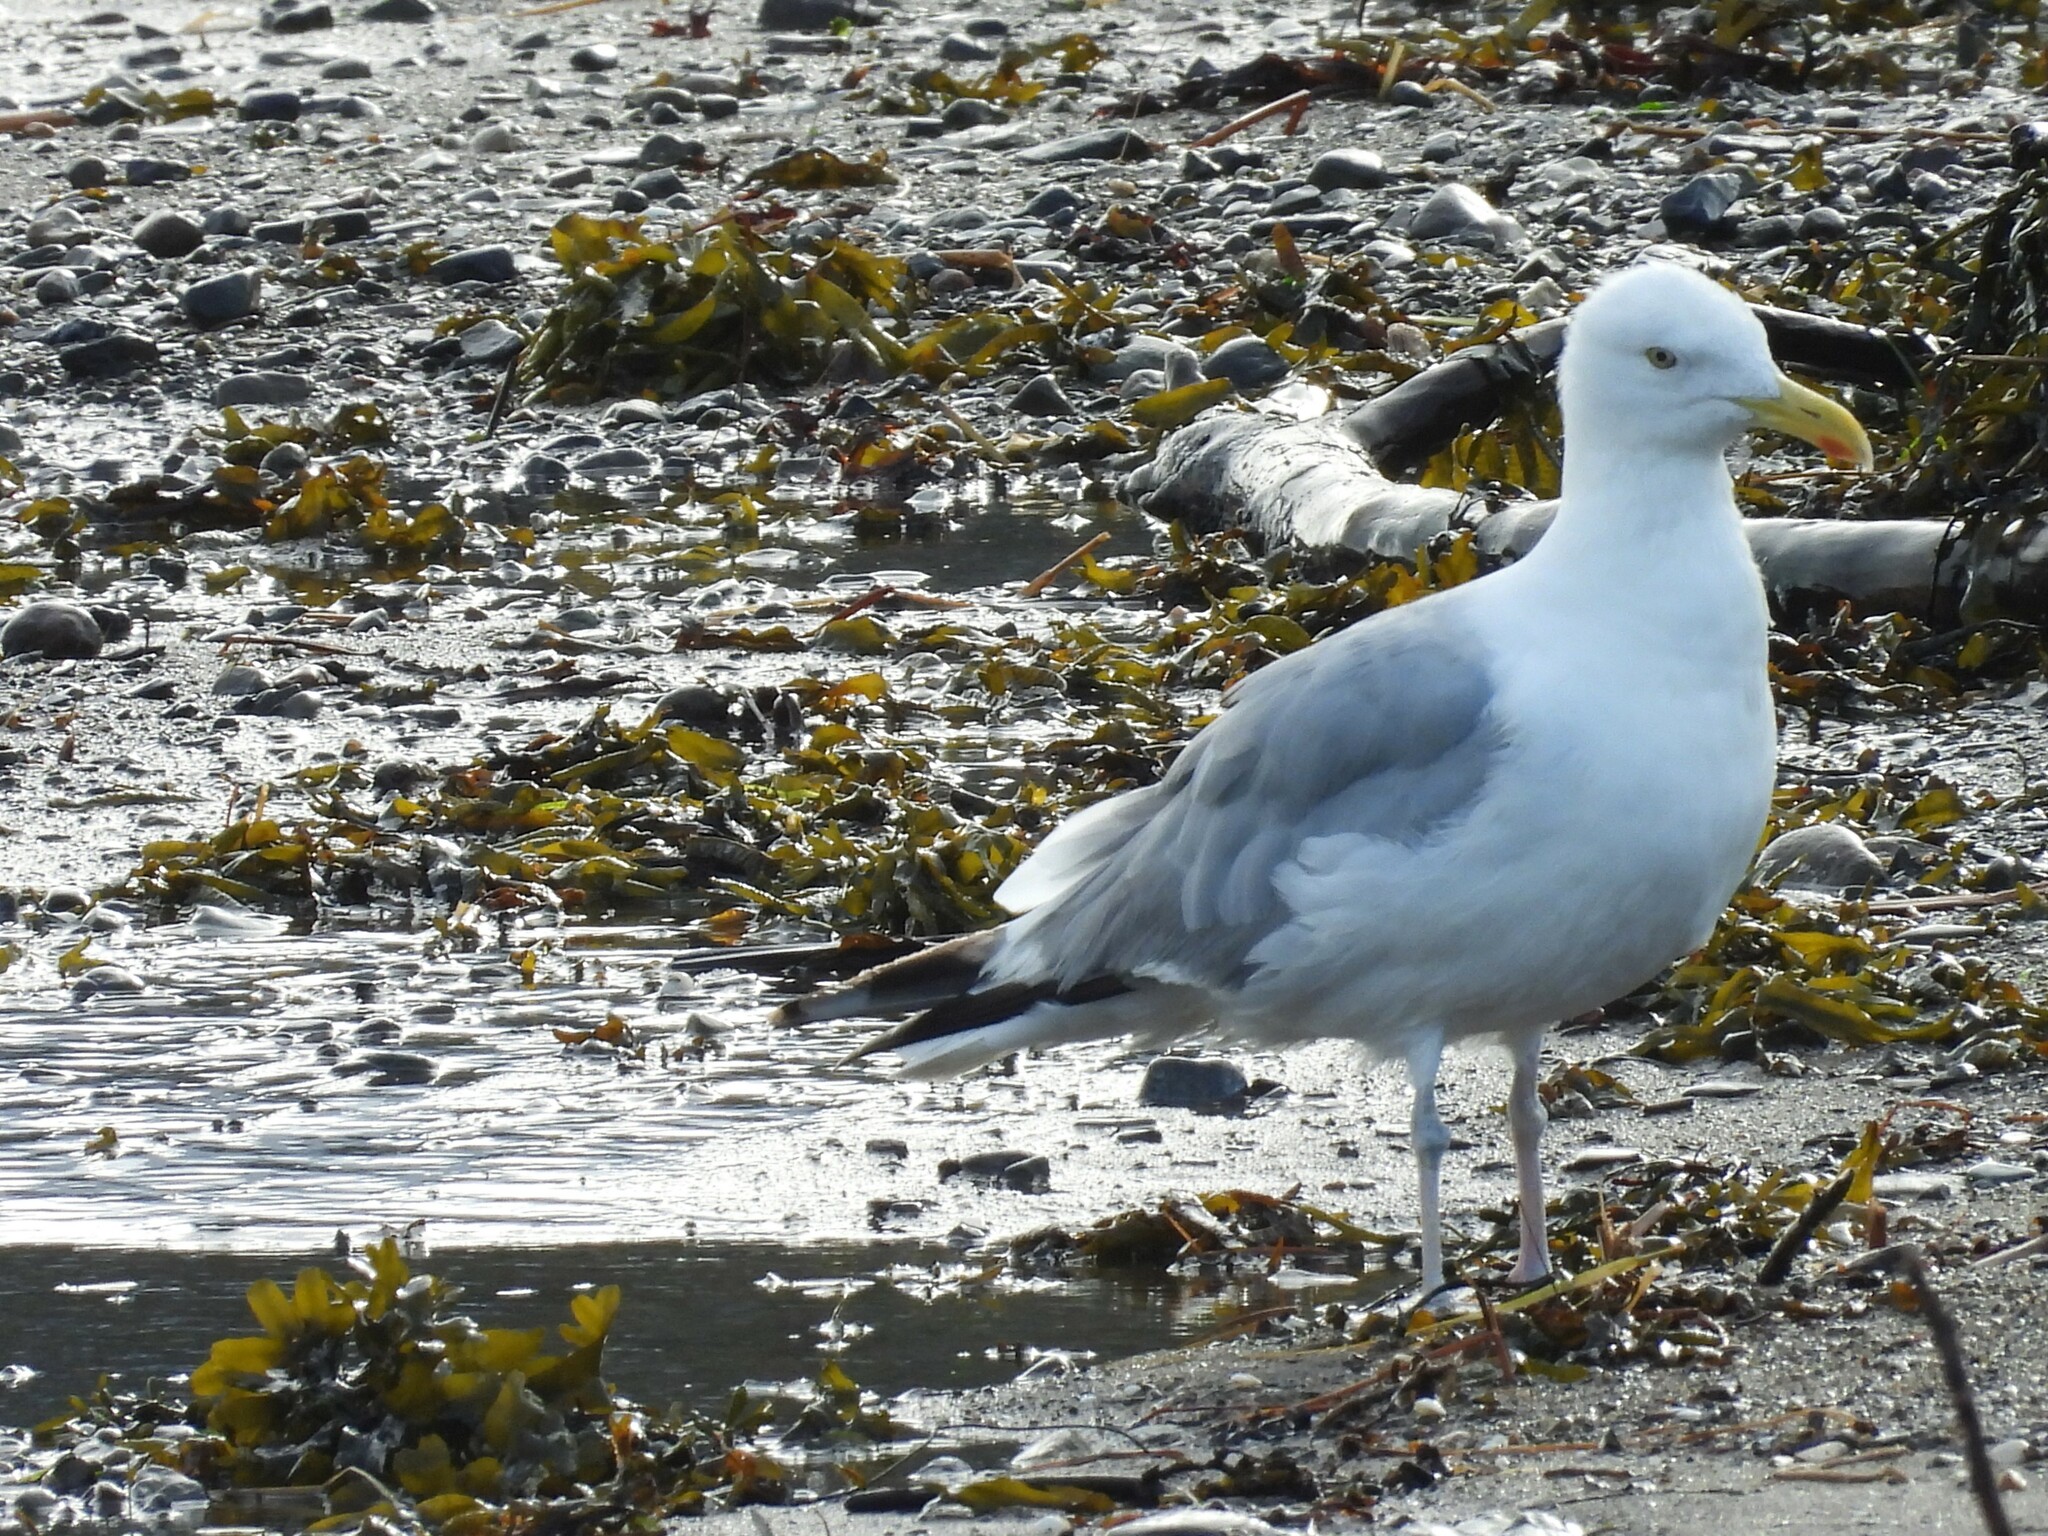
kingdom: Animalia
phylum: Chordata
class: Aves
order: Charadriiformes
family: Laridae
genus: Larus
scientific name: Larus argentatus
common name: Herring gull
